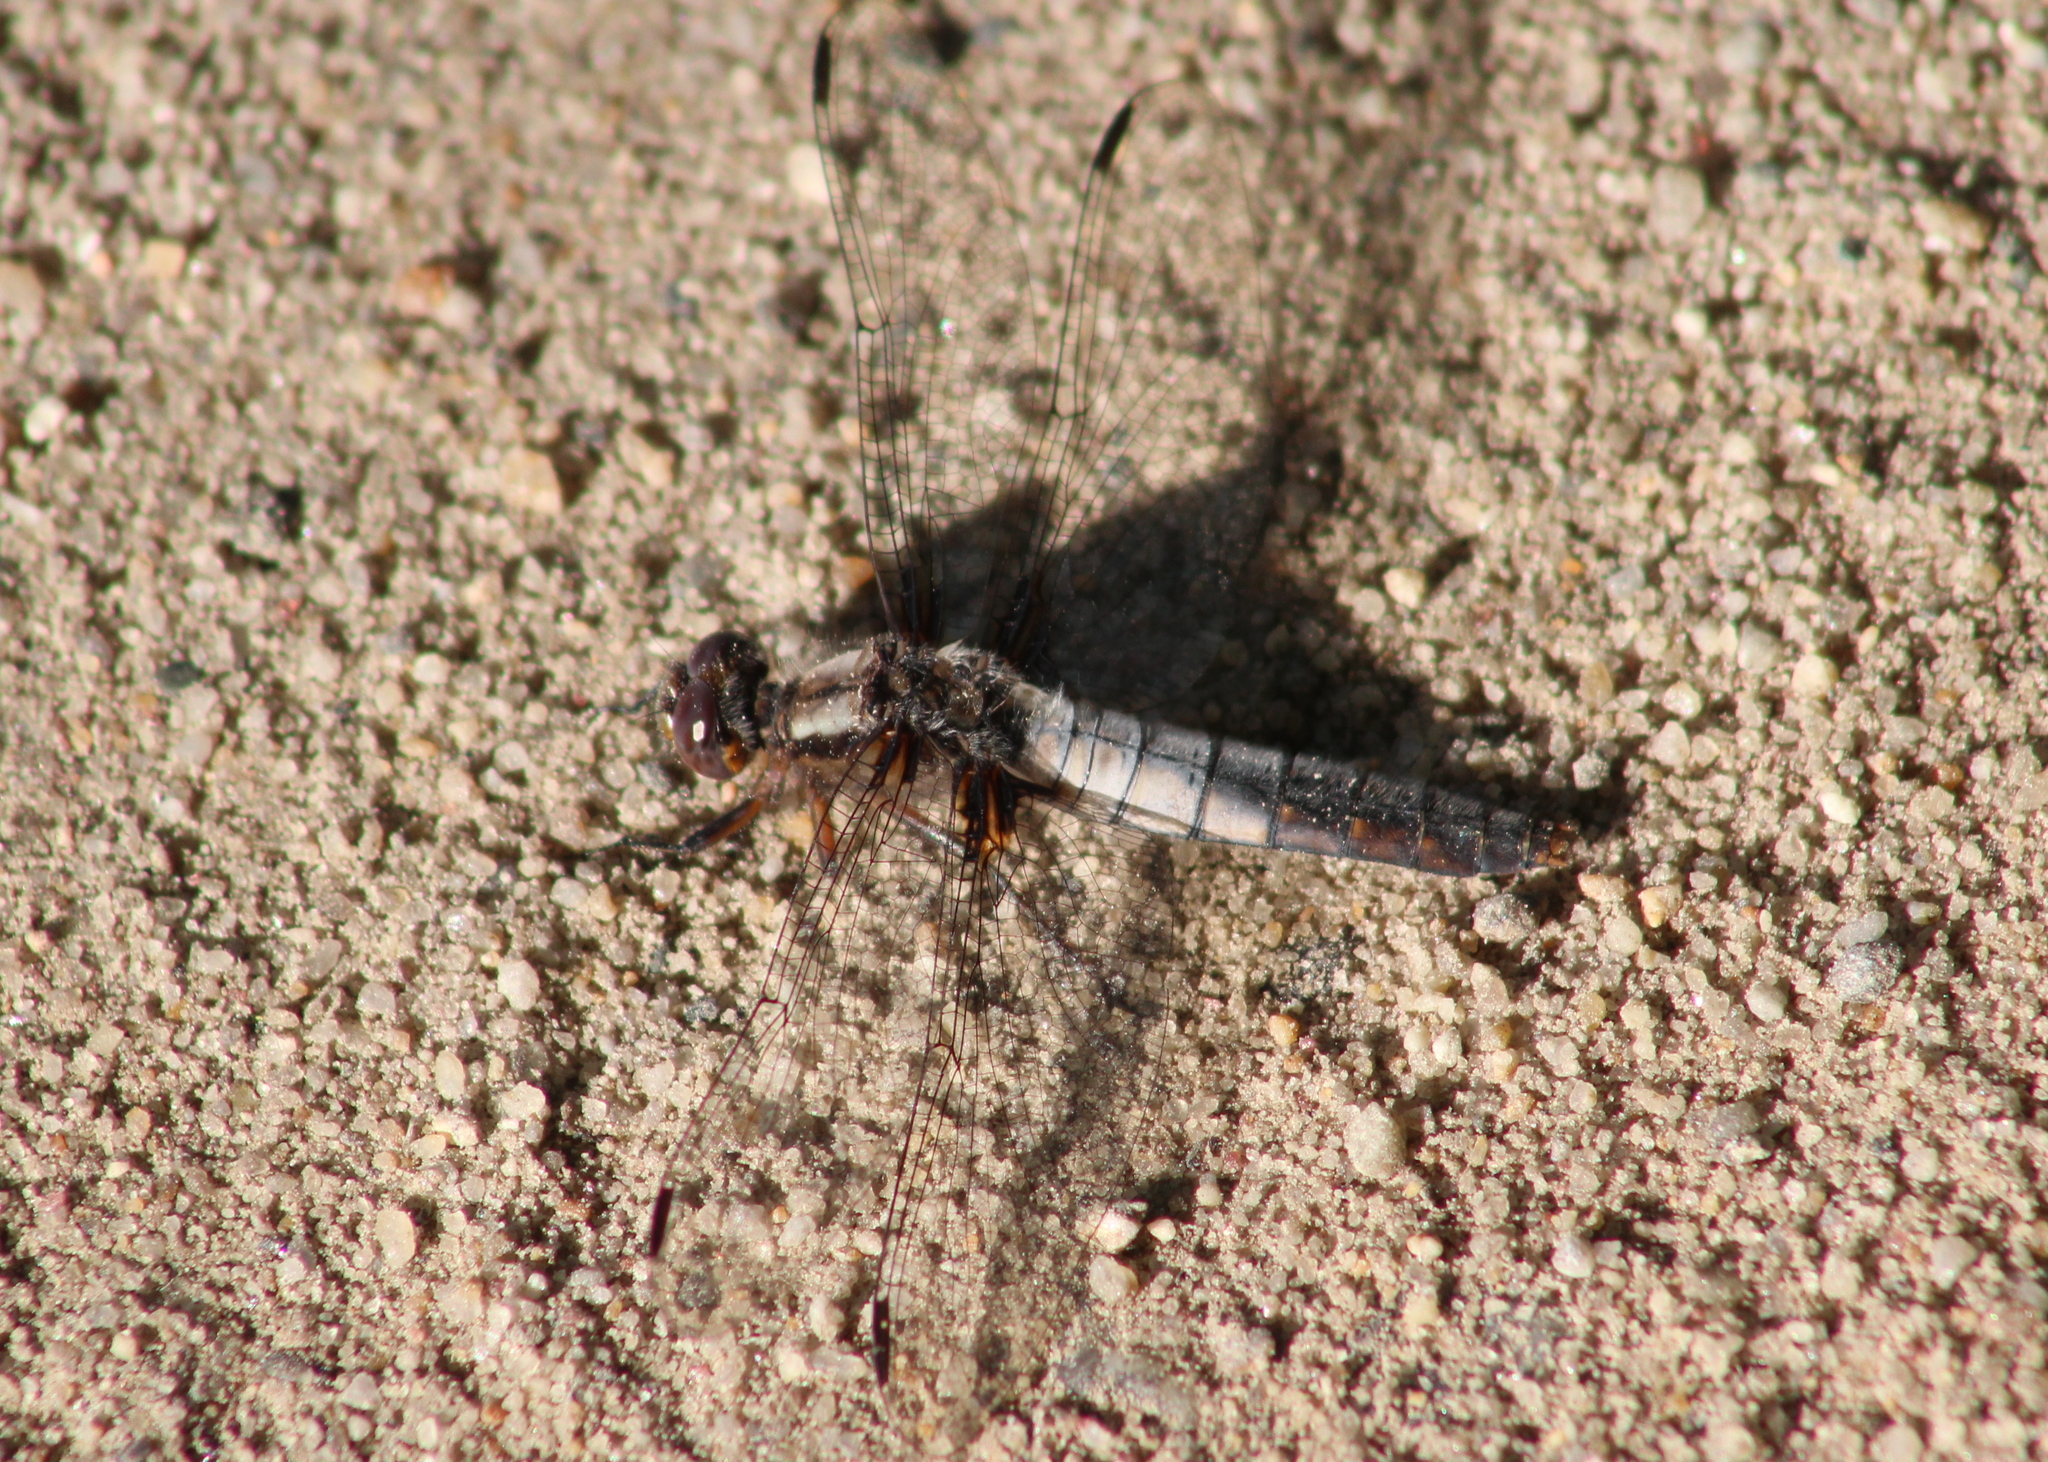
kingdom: Animalia
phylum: Arthropoda
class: Insecta
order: Odonata
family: Libellulidae
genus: Ladona
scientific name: Ladona julia
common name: Chalk-fronted corporal
